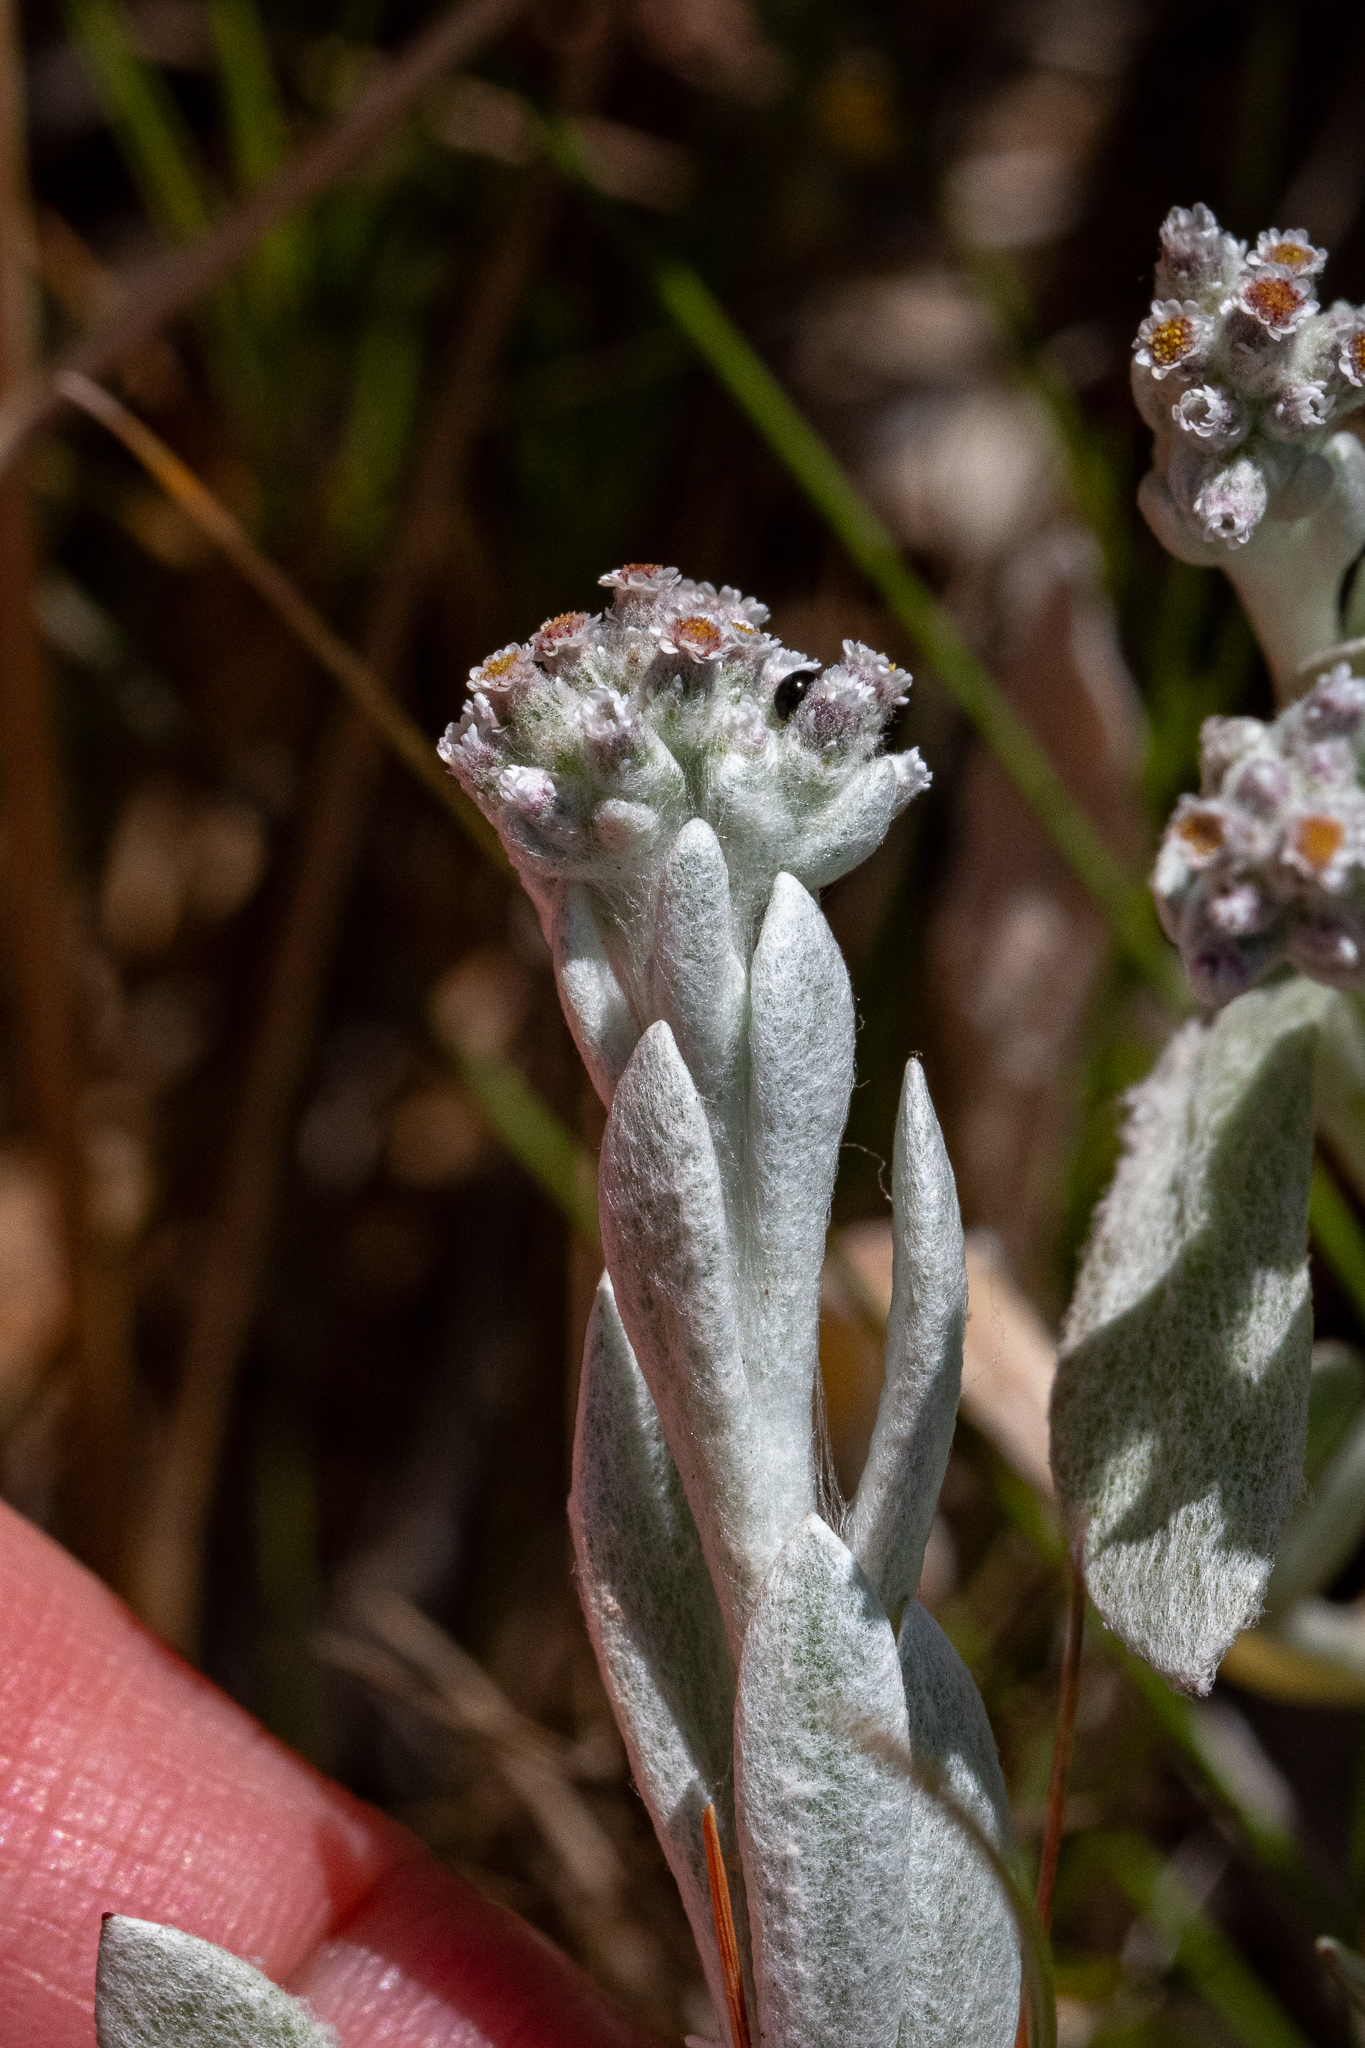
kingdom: Plantae
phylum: Tracheophyta
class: Magnoliopsida
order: Asterales
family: Asteraceae
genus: Vellereophyton
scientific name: Vellereophyton dealbatum
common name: White-cudweed
